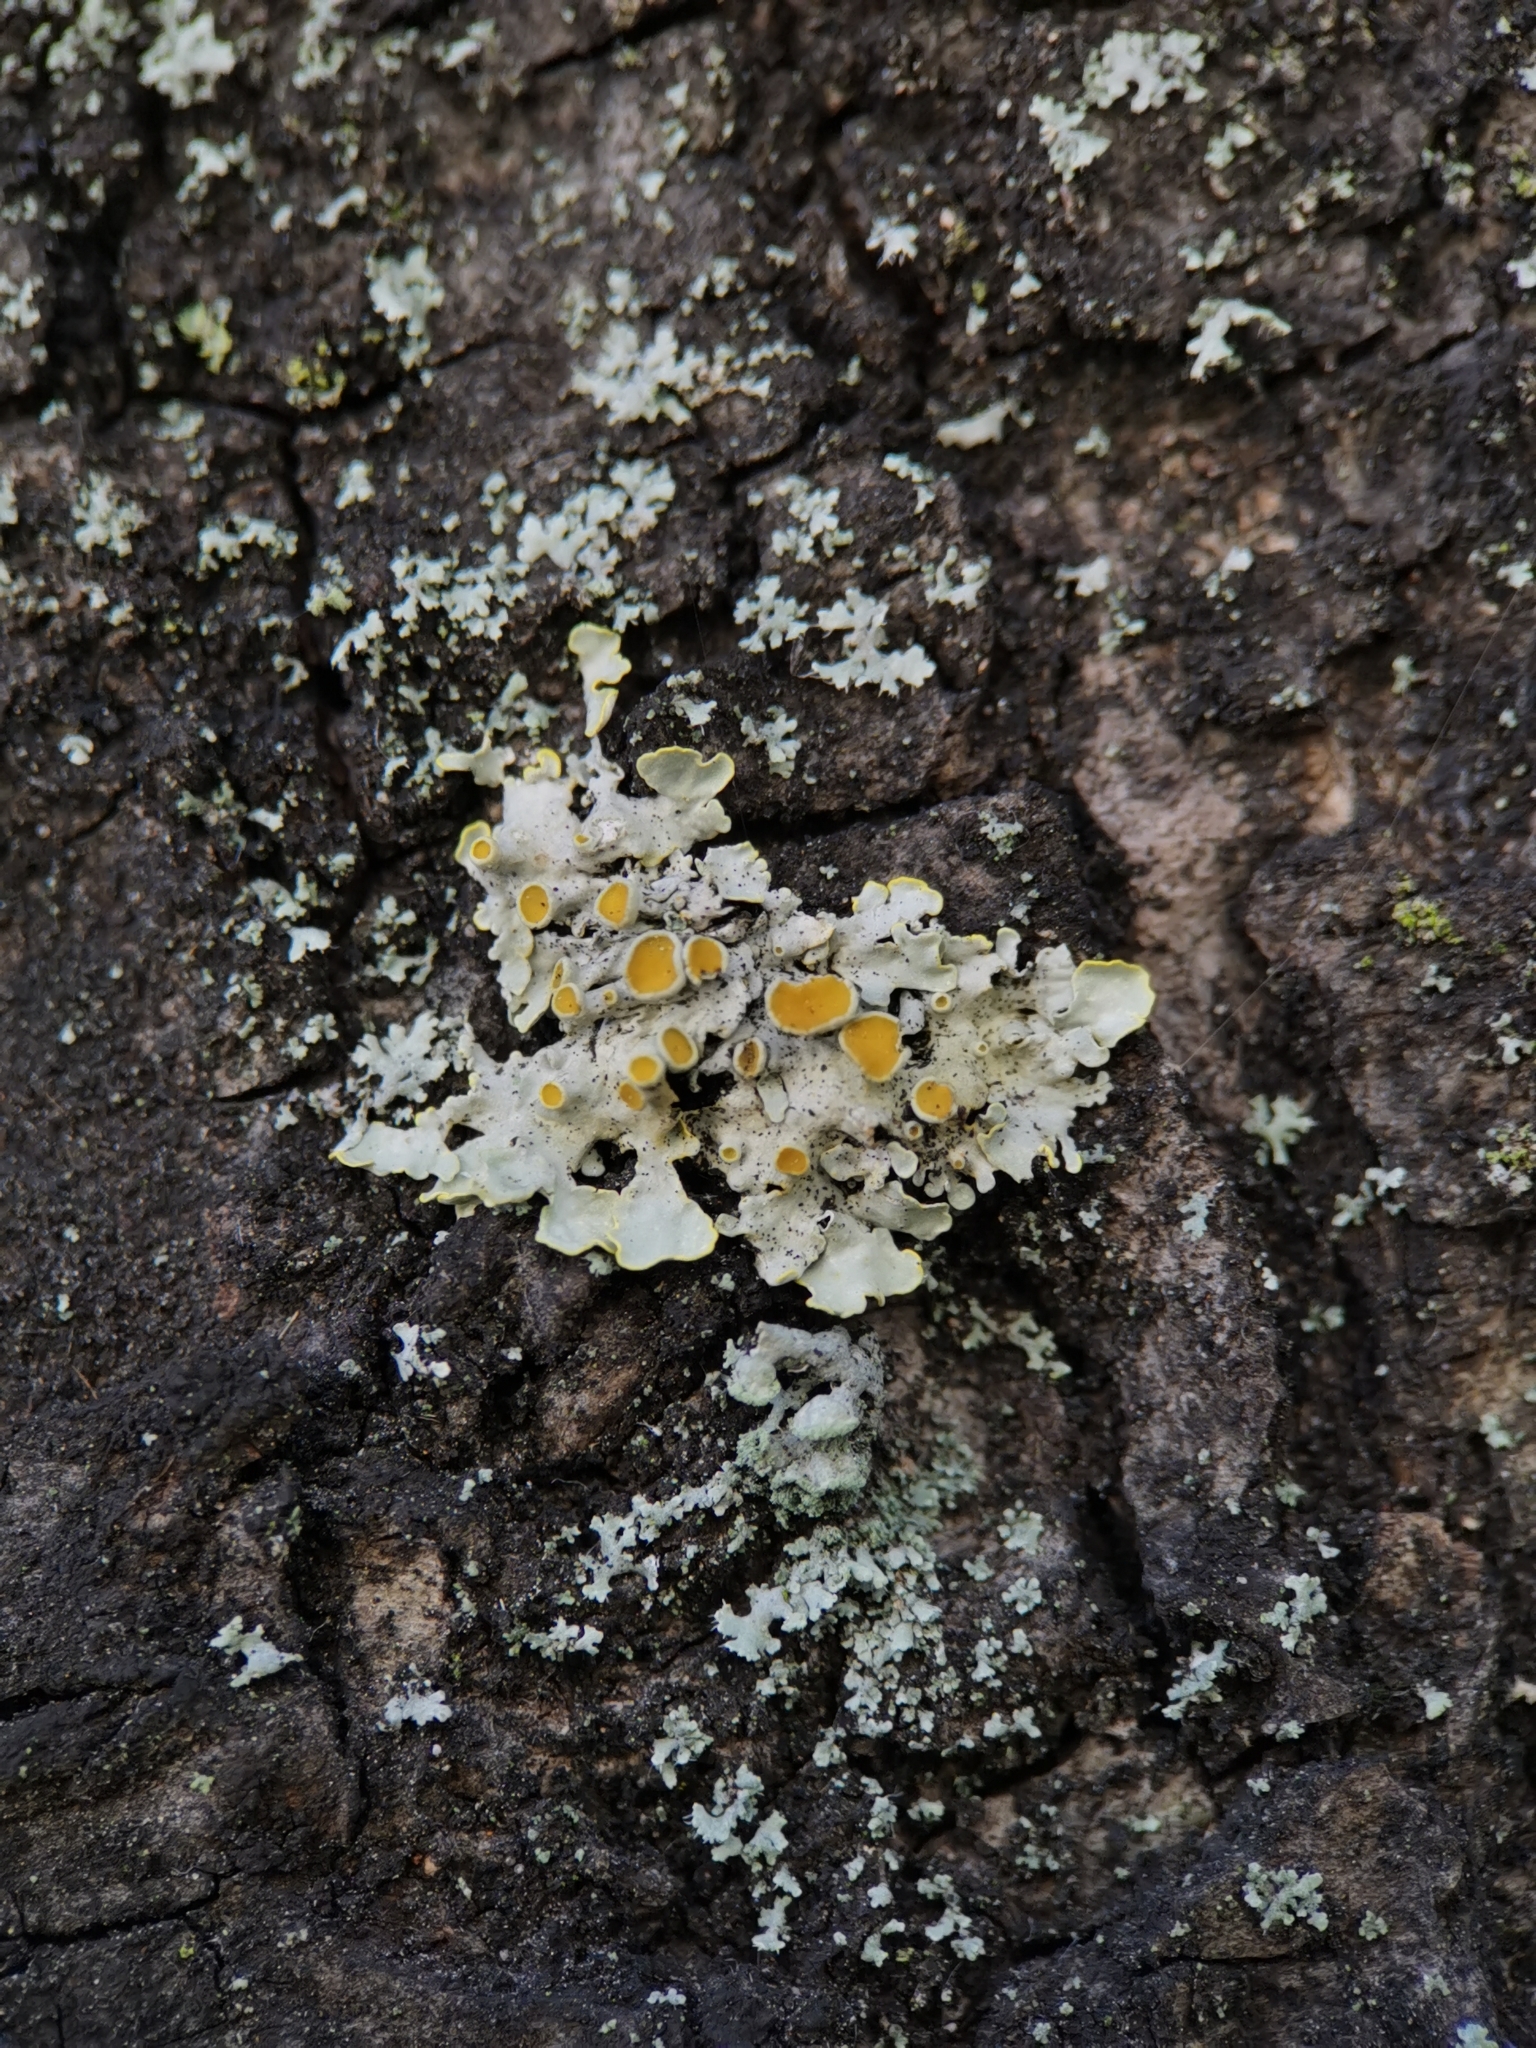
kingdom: Fungi
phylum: Ascomycota
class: Lecanoromycetes
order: Teloschistales
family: Teloschistaceae
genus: Xanthoria
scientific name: Xanthoria parietina
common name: Common orange lichen
